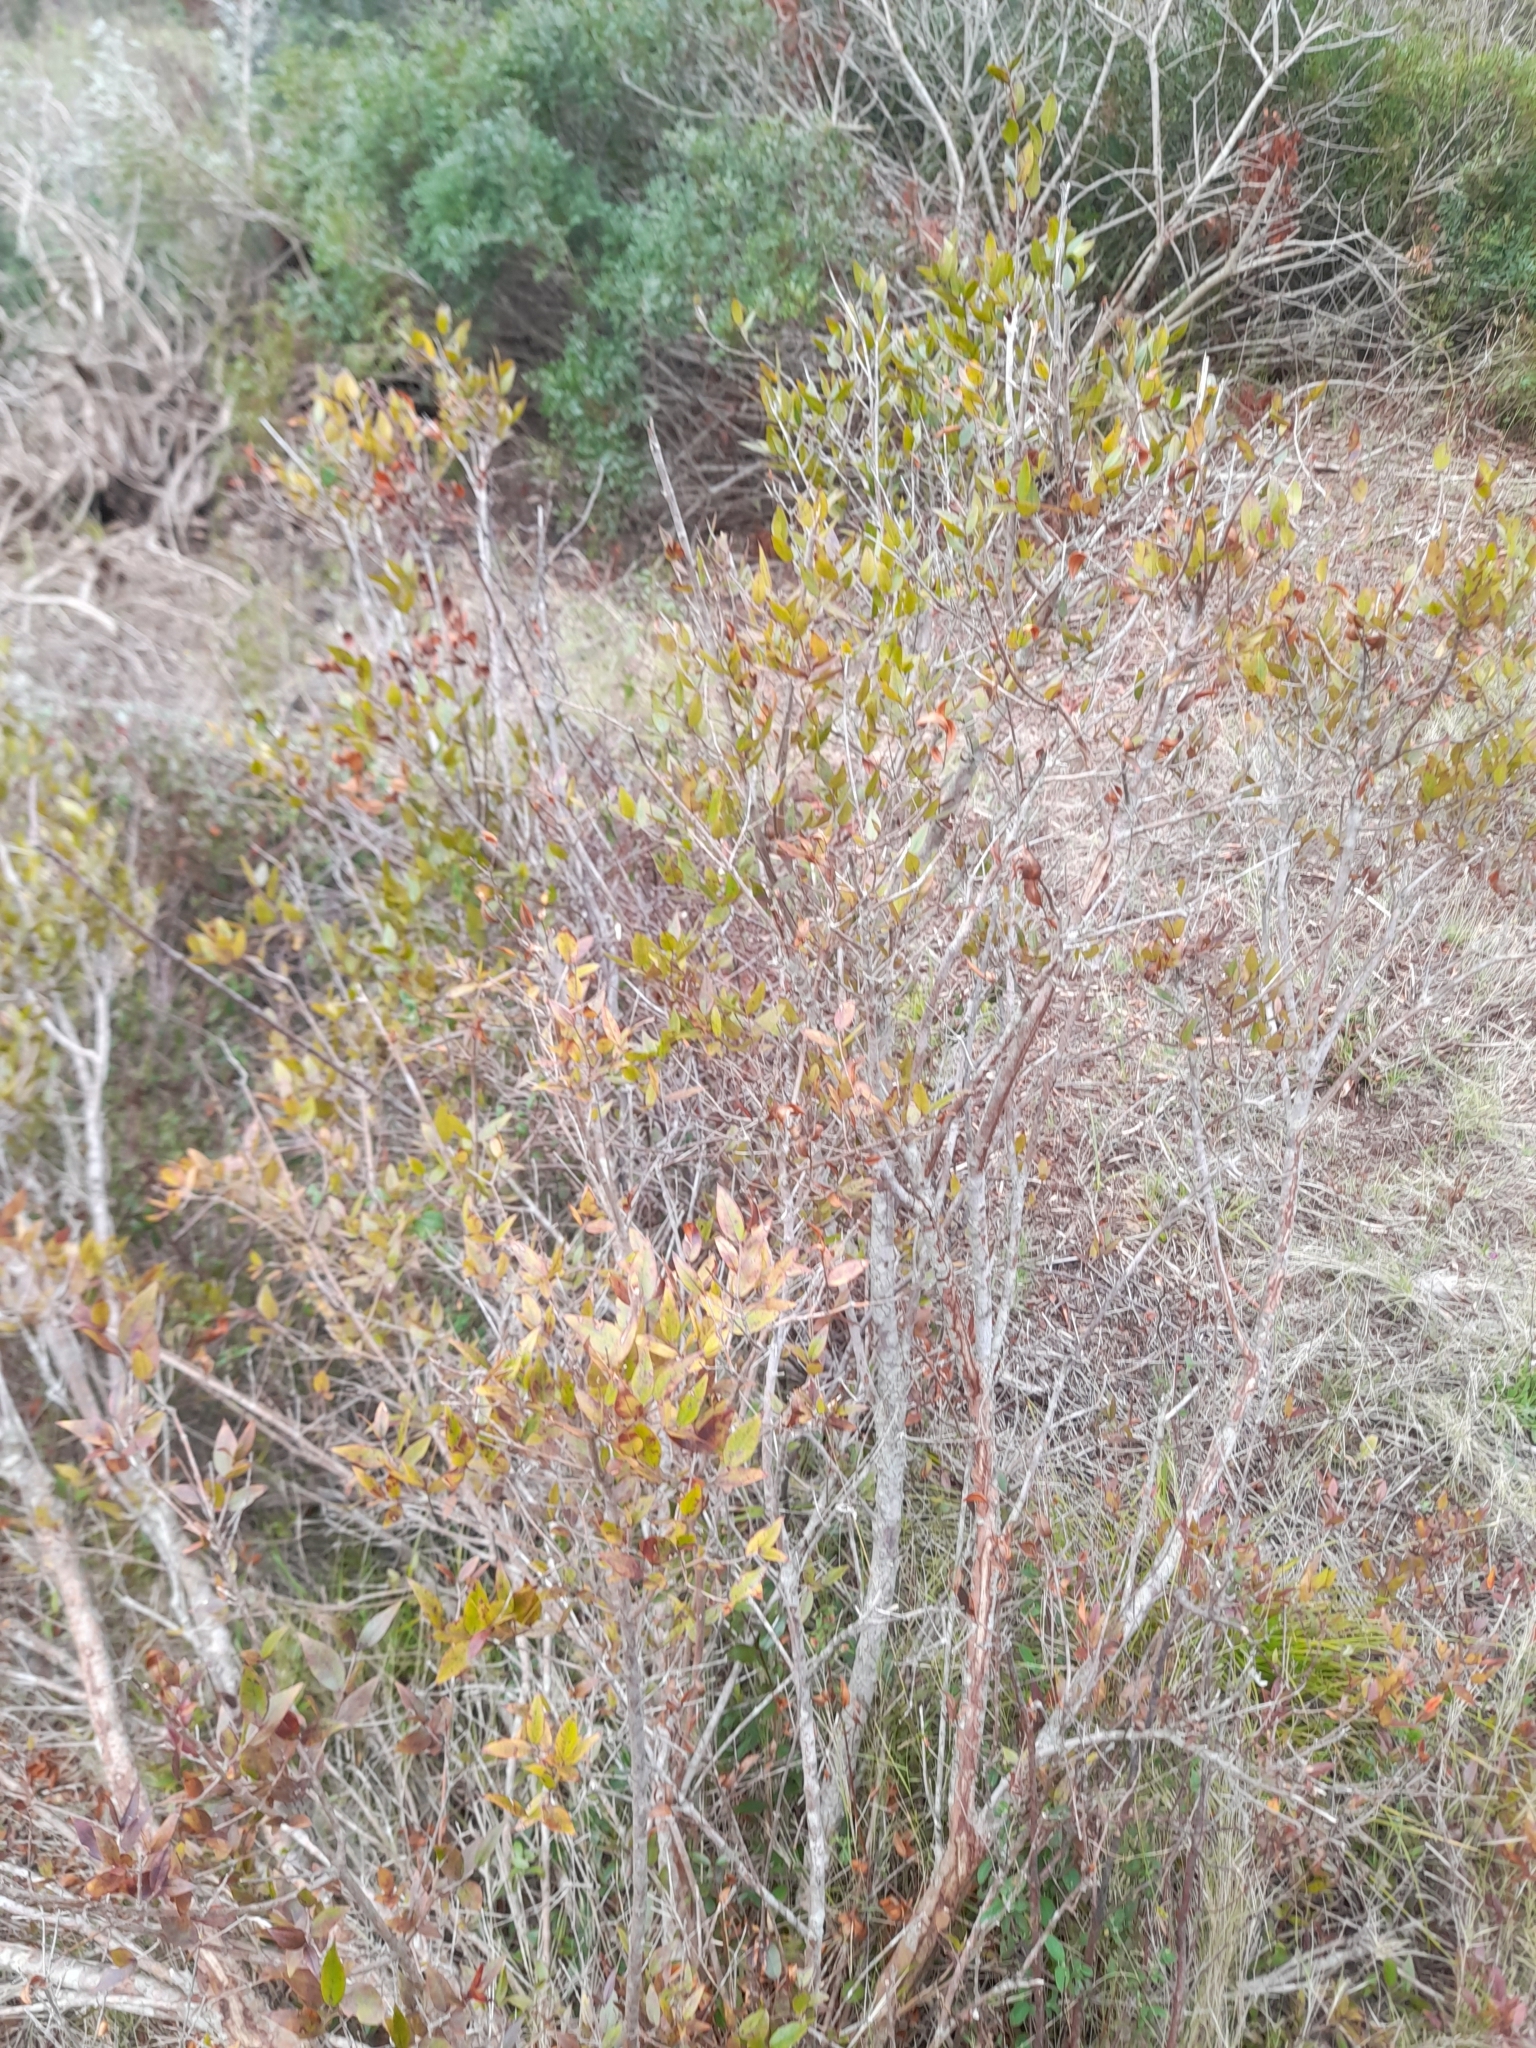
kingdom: Plantae
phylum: Tracheophyta
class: Magnoliopsida
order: Myrtales
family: Myrtaceae
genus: Myrtus
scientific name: Myrtus communis
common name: Myrtle
